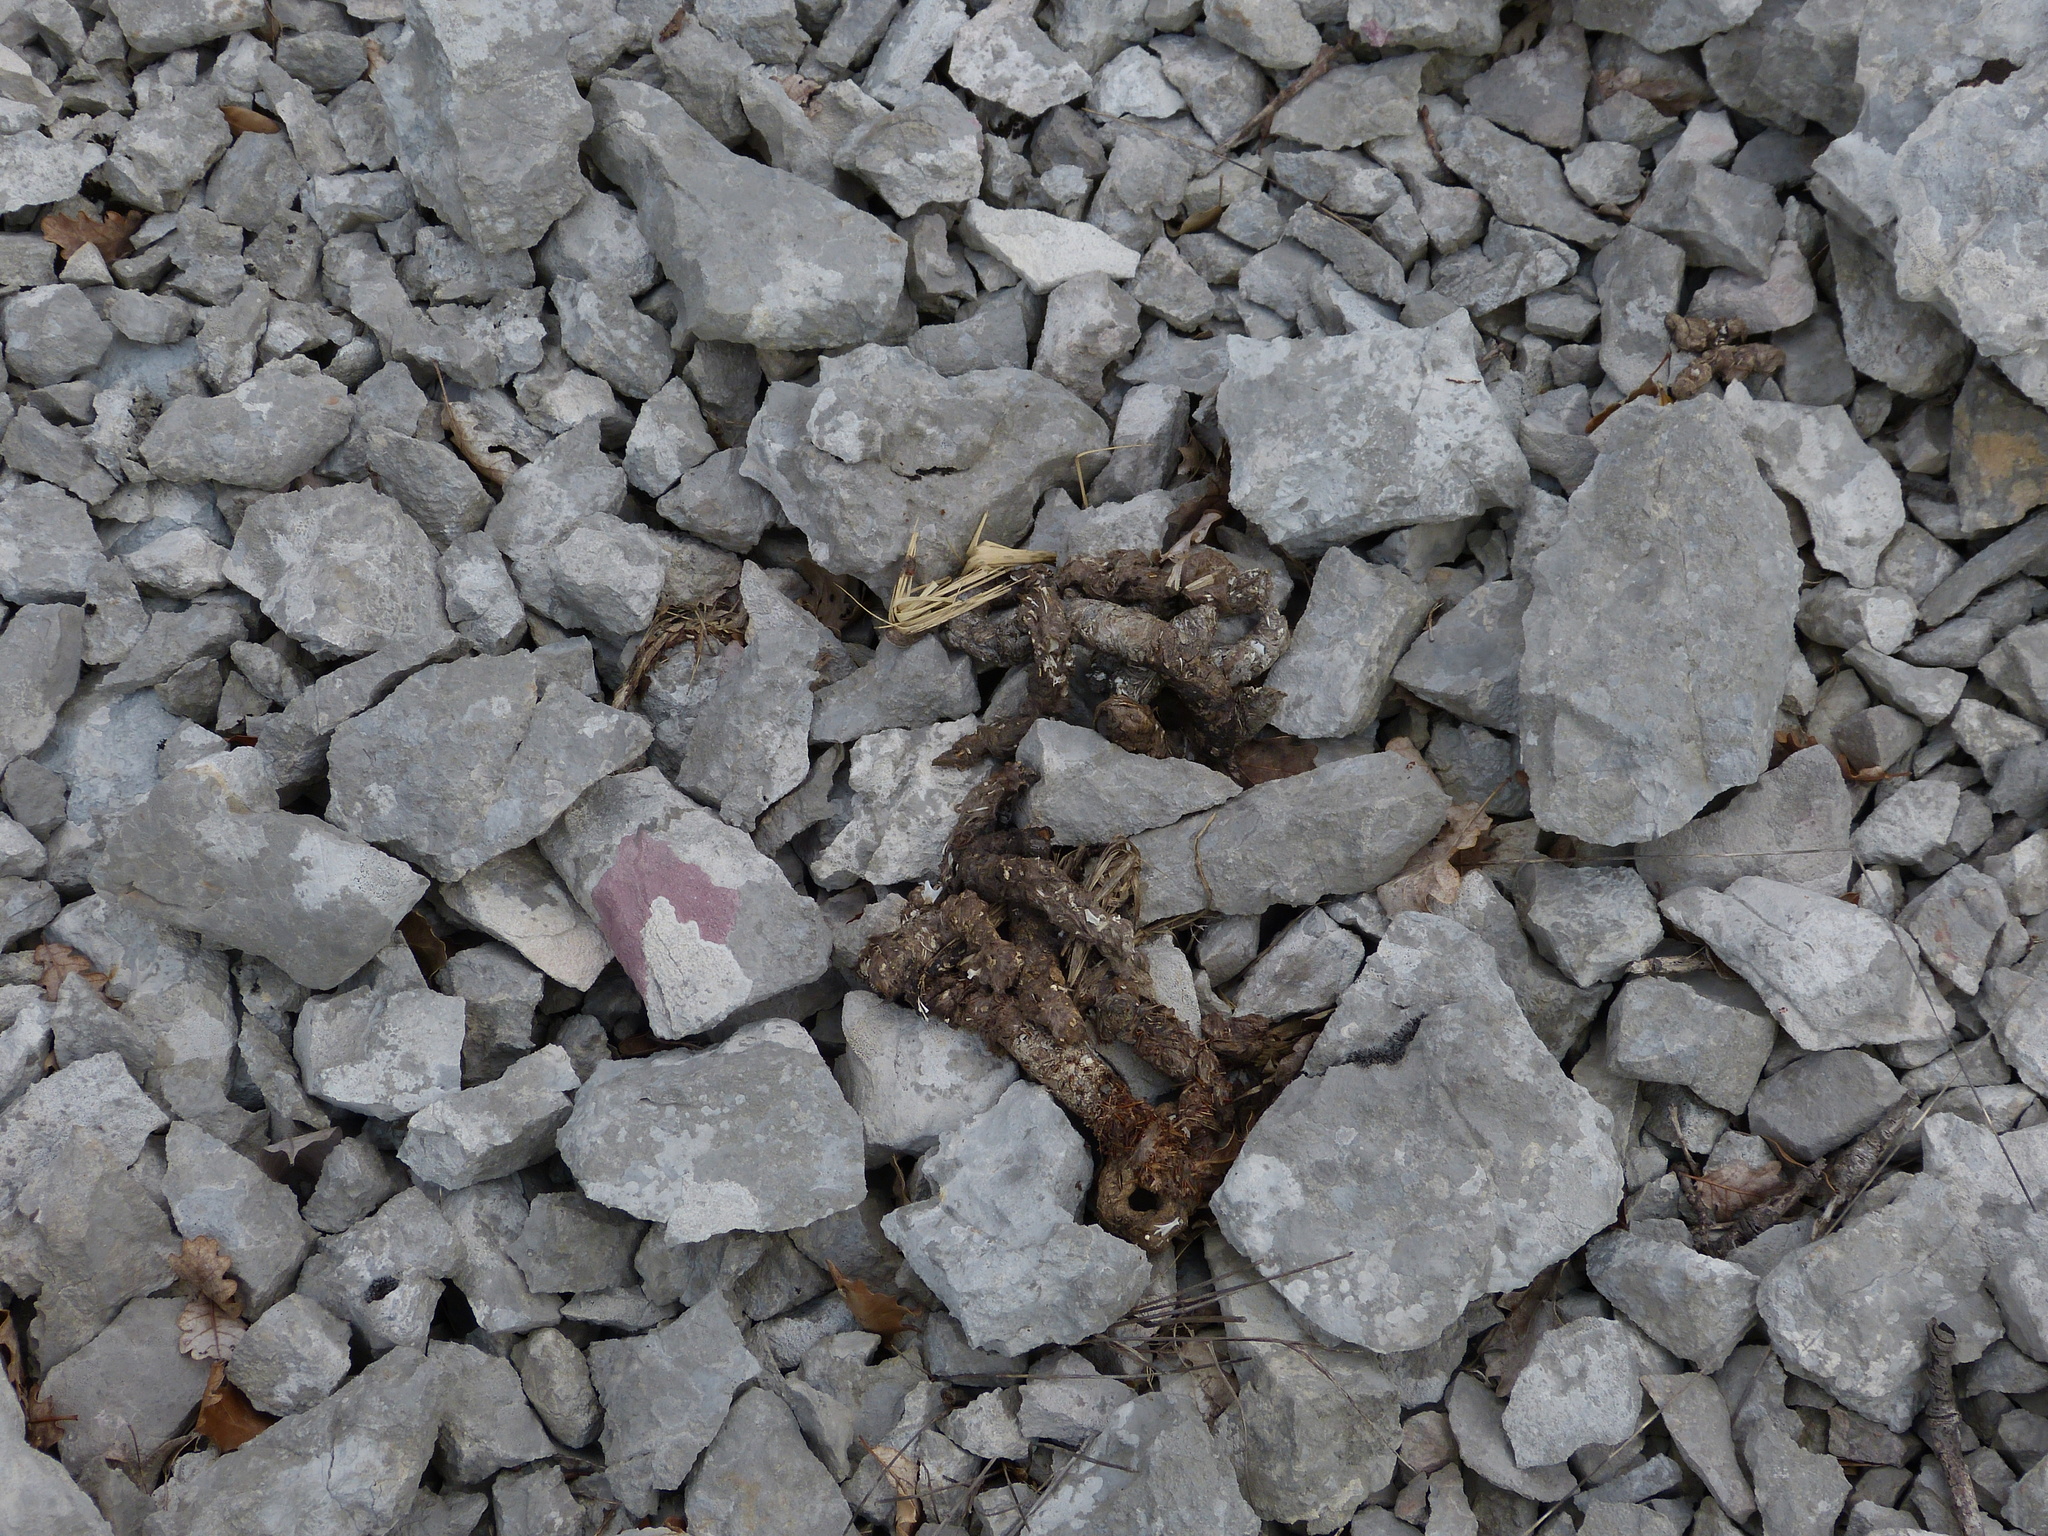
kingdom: Animalia
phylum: Chordata
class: Mammalia
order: Carnivora
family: Viverridae
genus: Genetta
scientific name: Genetta genetta
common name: Common genet
